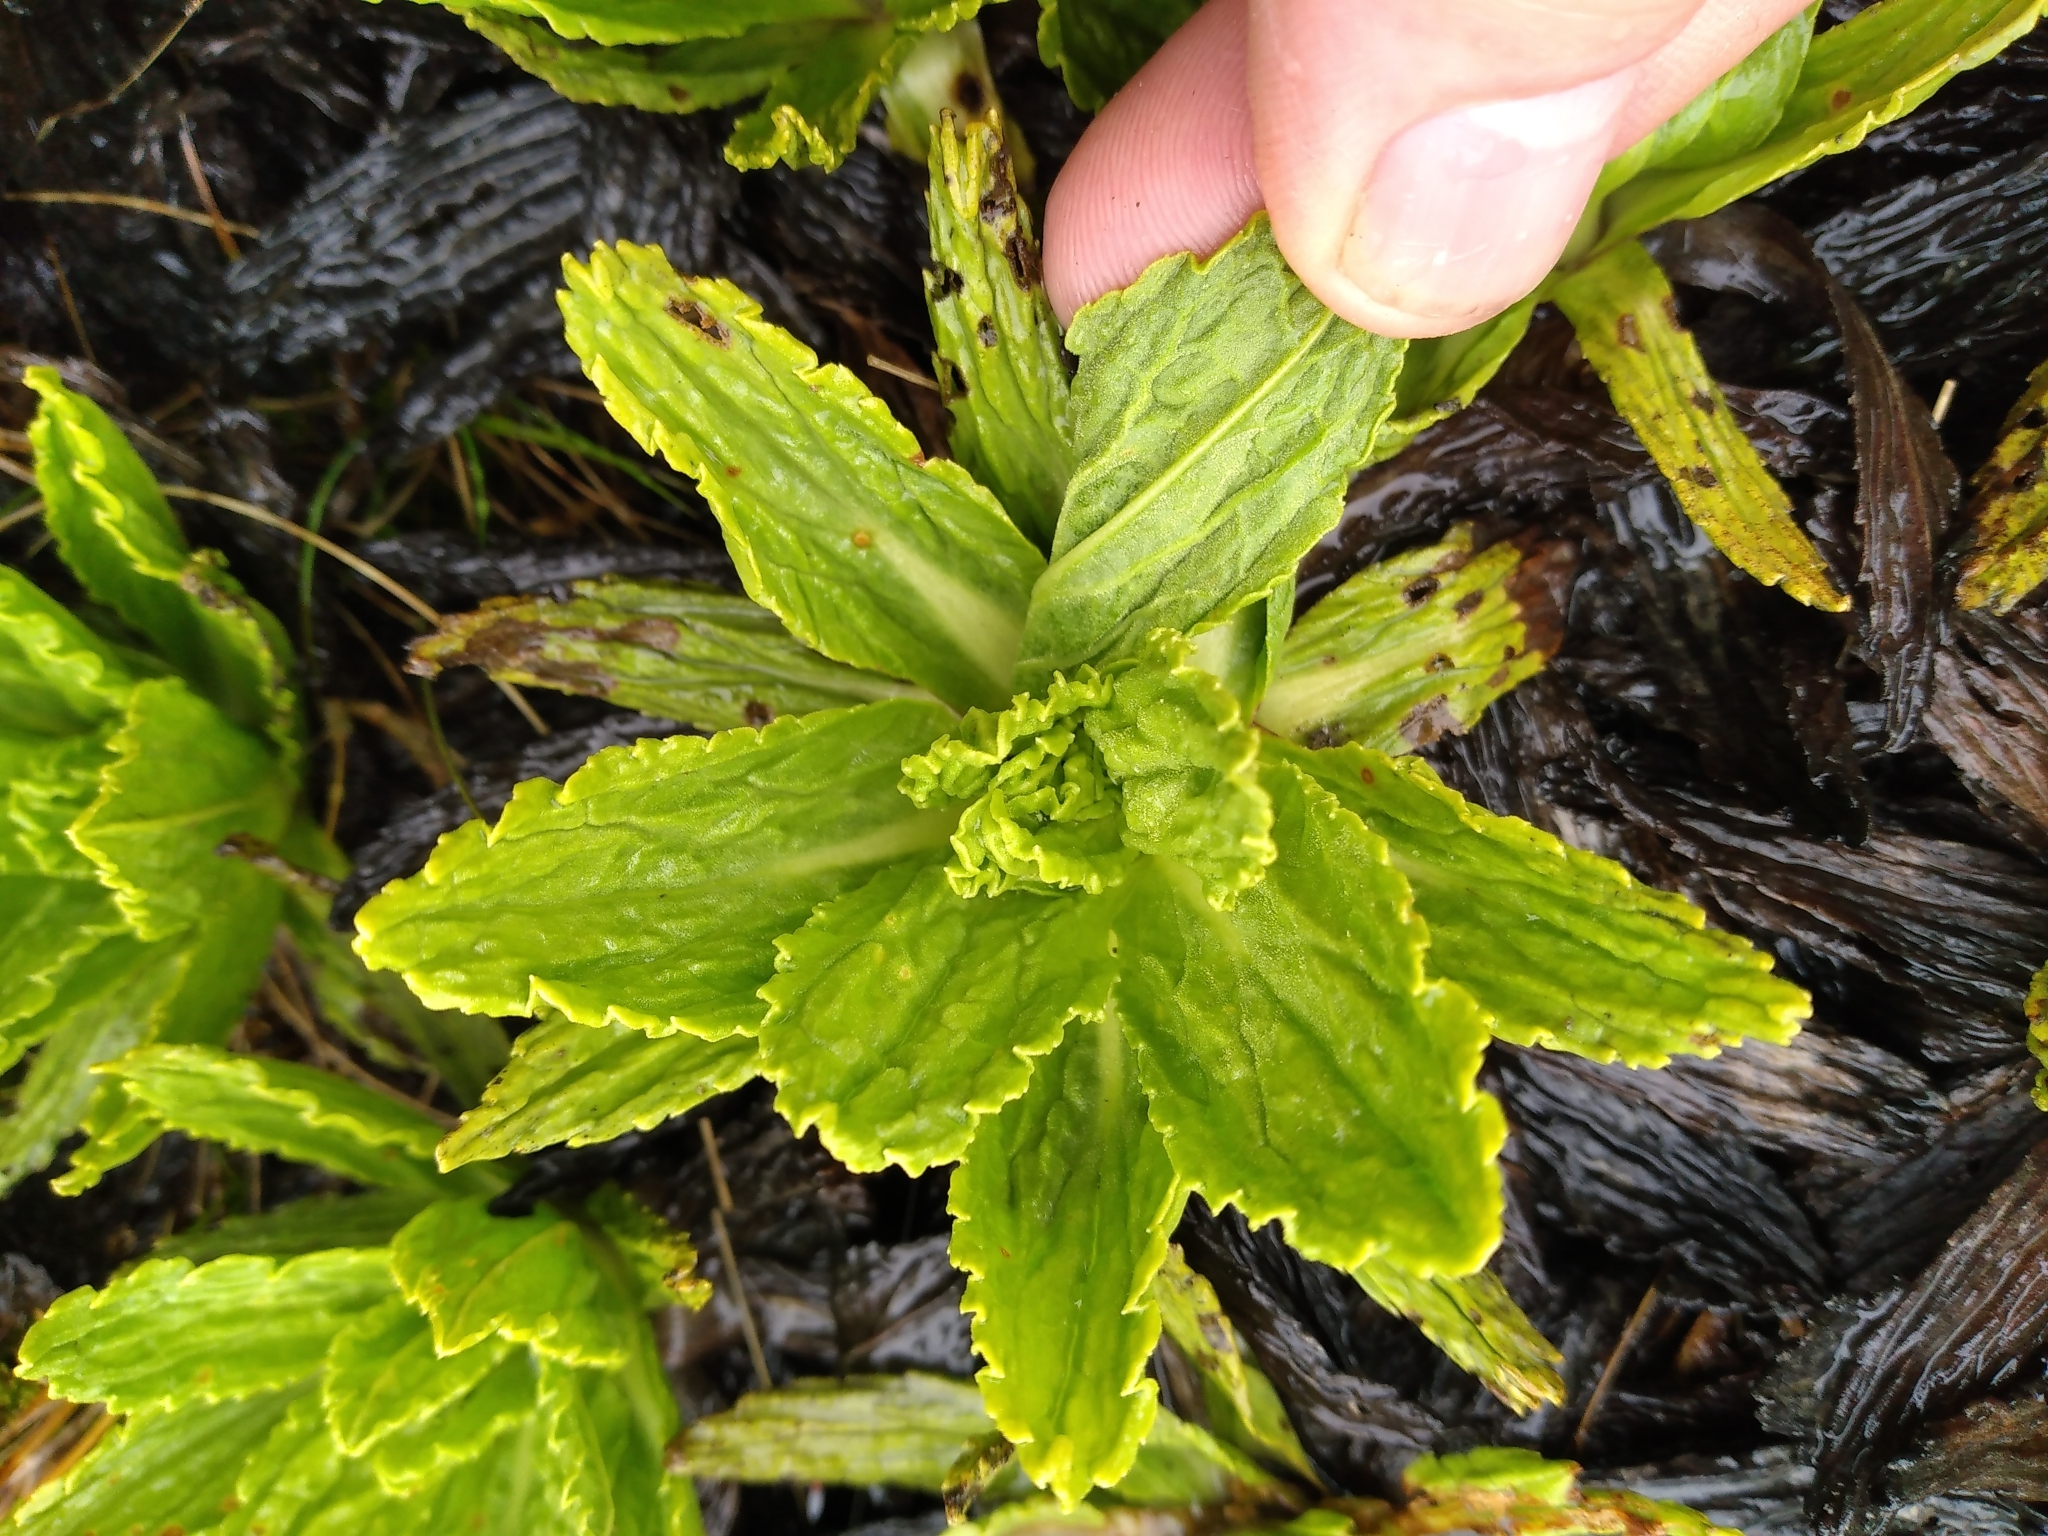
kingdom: Plantae
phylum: Tracheophyta
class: Magnoliopsida
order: Asterales
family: Asteraceae
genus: Celmisia
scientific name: Celmisia prorepens
